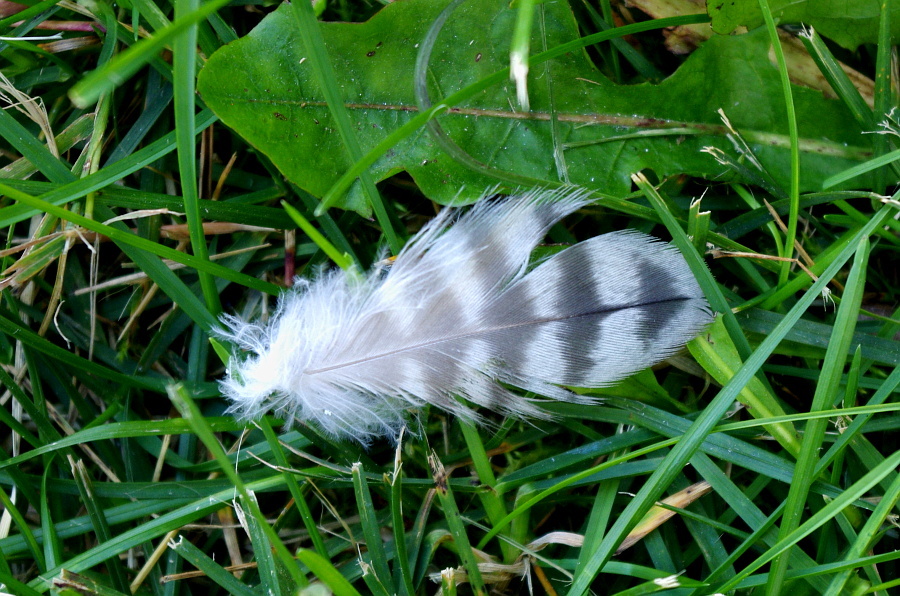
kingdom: Animalia
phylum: Chordata
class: Aves
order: Falconiformes
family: Falconidae
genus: Falco
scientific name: Falco peregrinus
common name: Peregrine falcon
